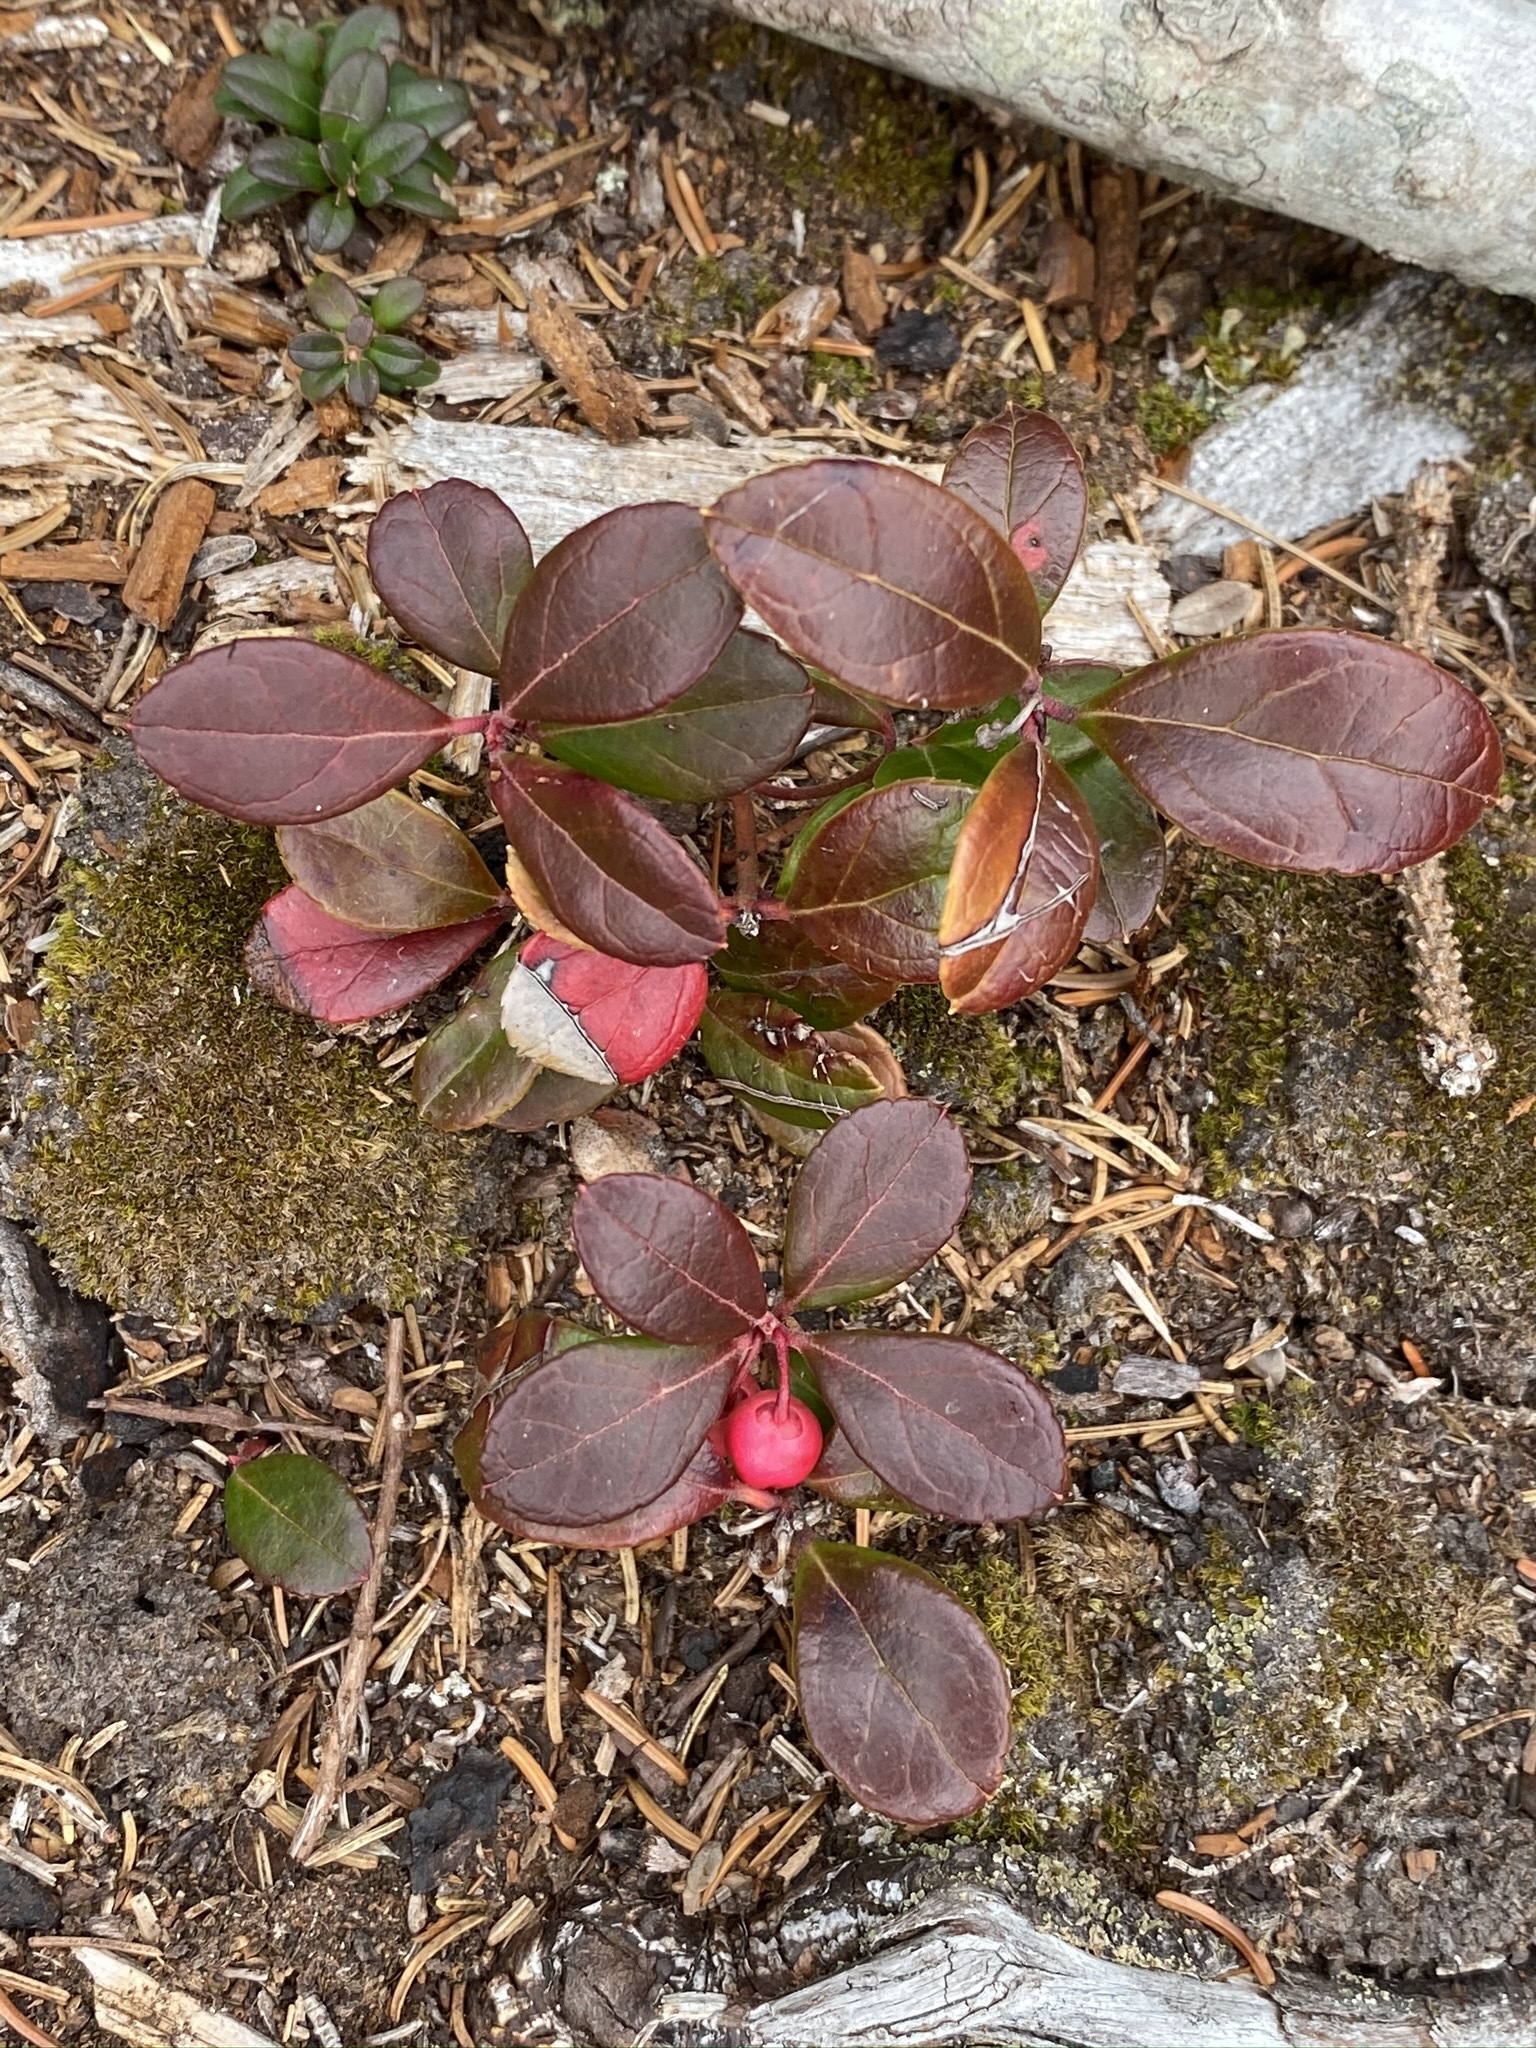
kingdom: Plantae
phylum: Tracheophyta
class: Magnoliopsida
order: Ericales
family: Ericaceae
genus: Gaultheria
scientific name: Gaultheria procumbens
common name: Checkerberry
